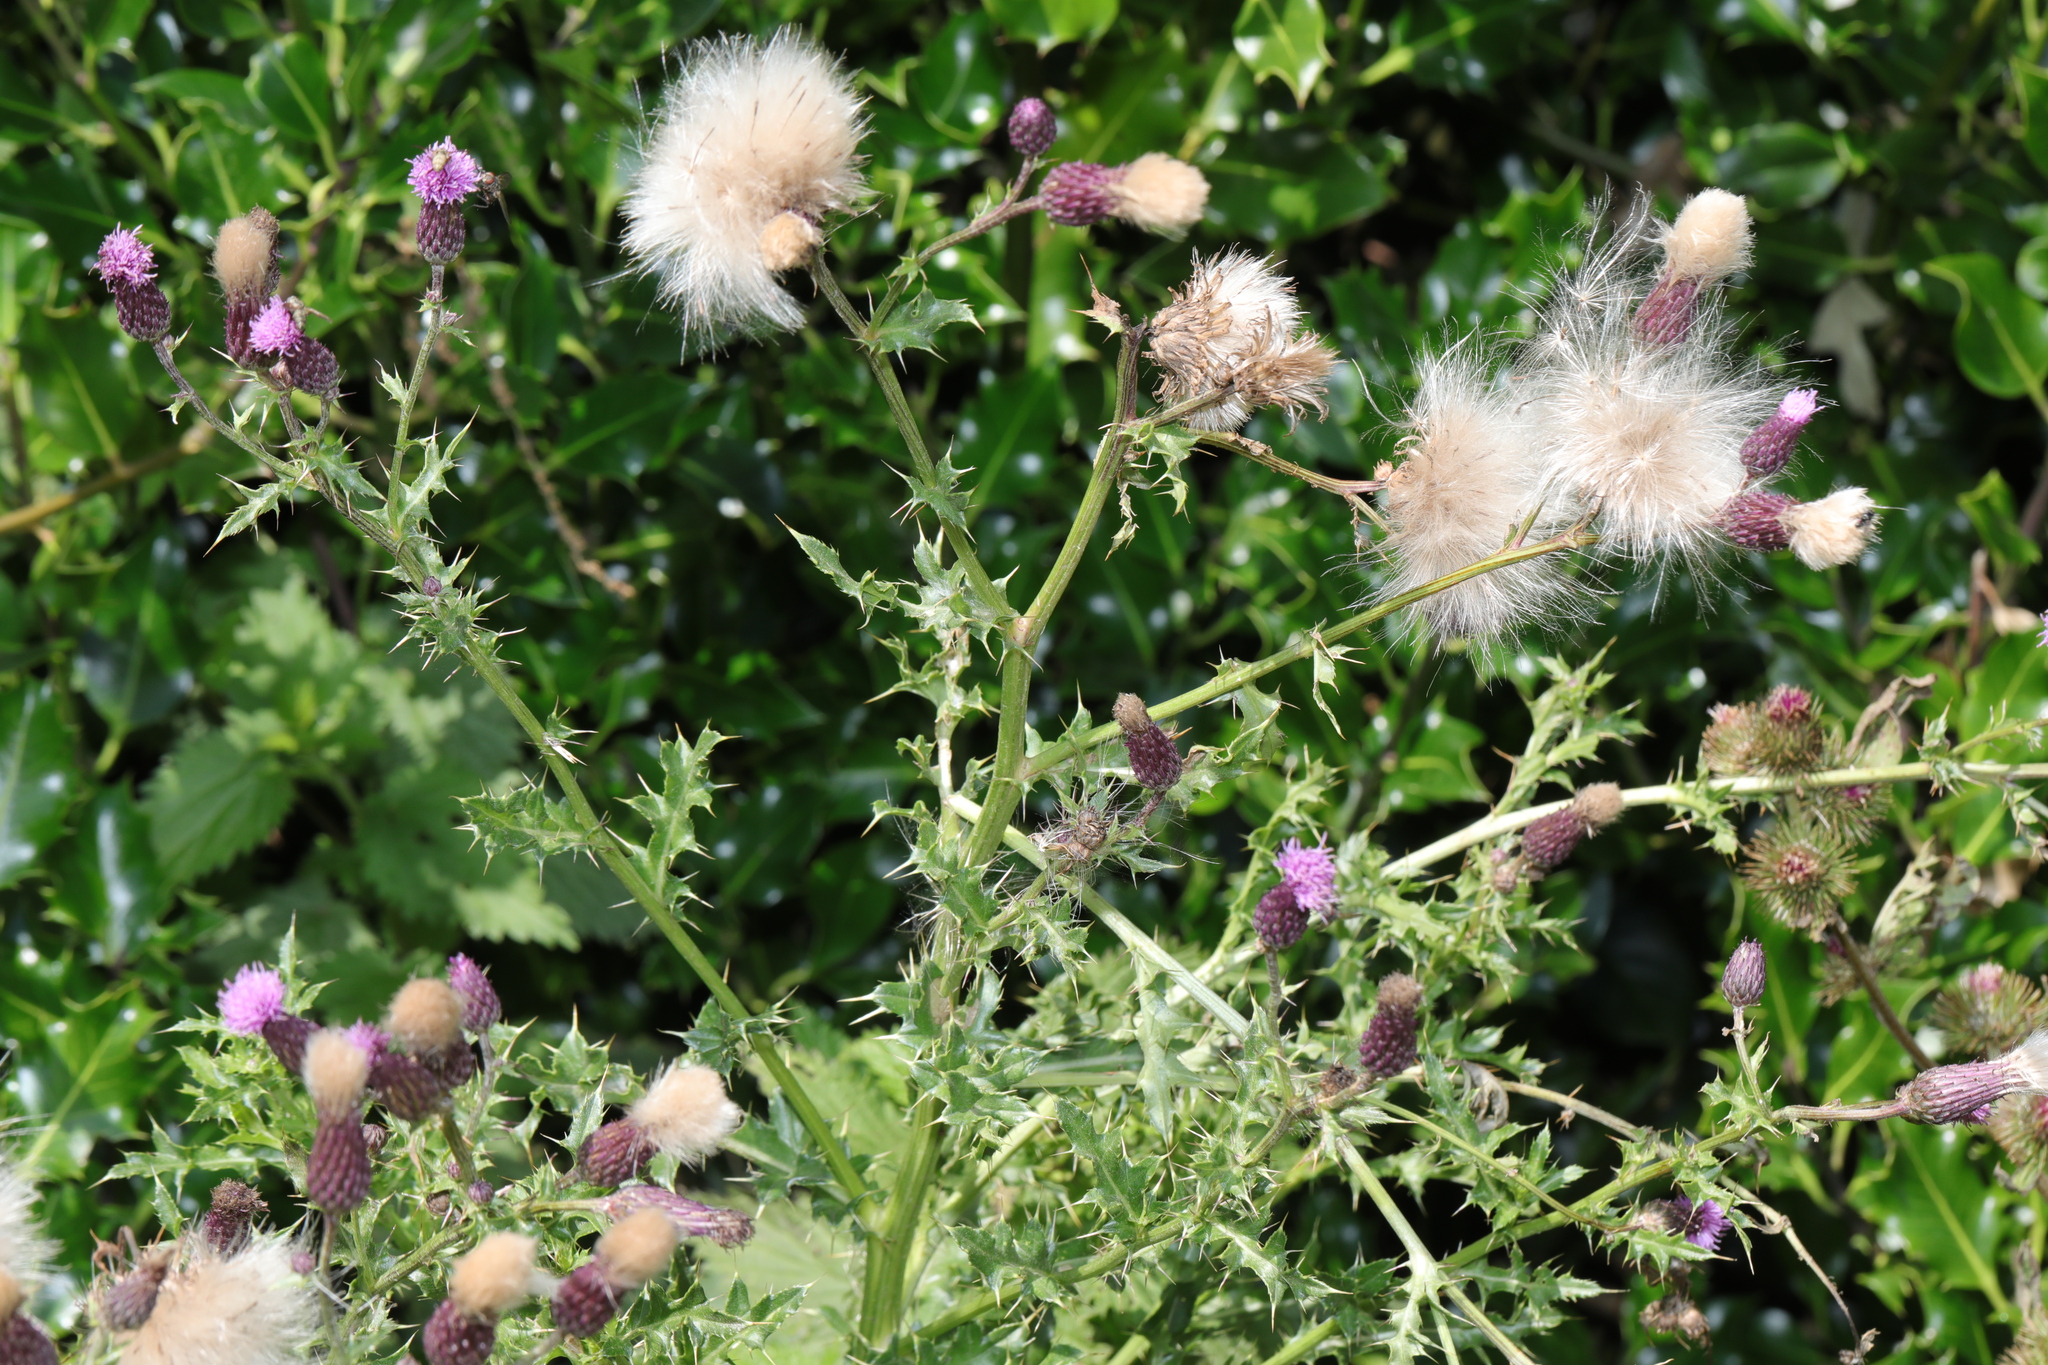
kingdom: Plantae
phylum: Tracheophyta
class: Magnoliopsida
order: Asterales
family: Asteraceae
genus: Cirsium
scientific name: Cirsium arvense
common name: Creeping thistle
